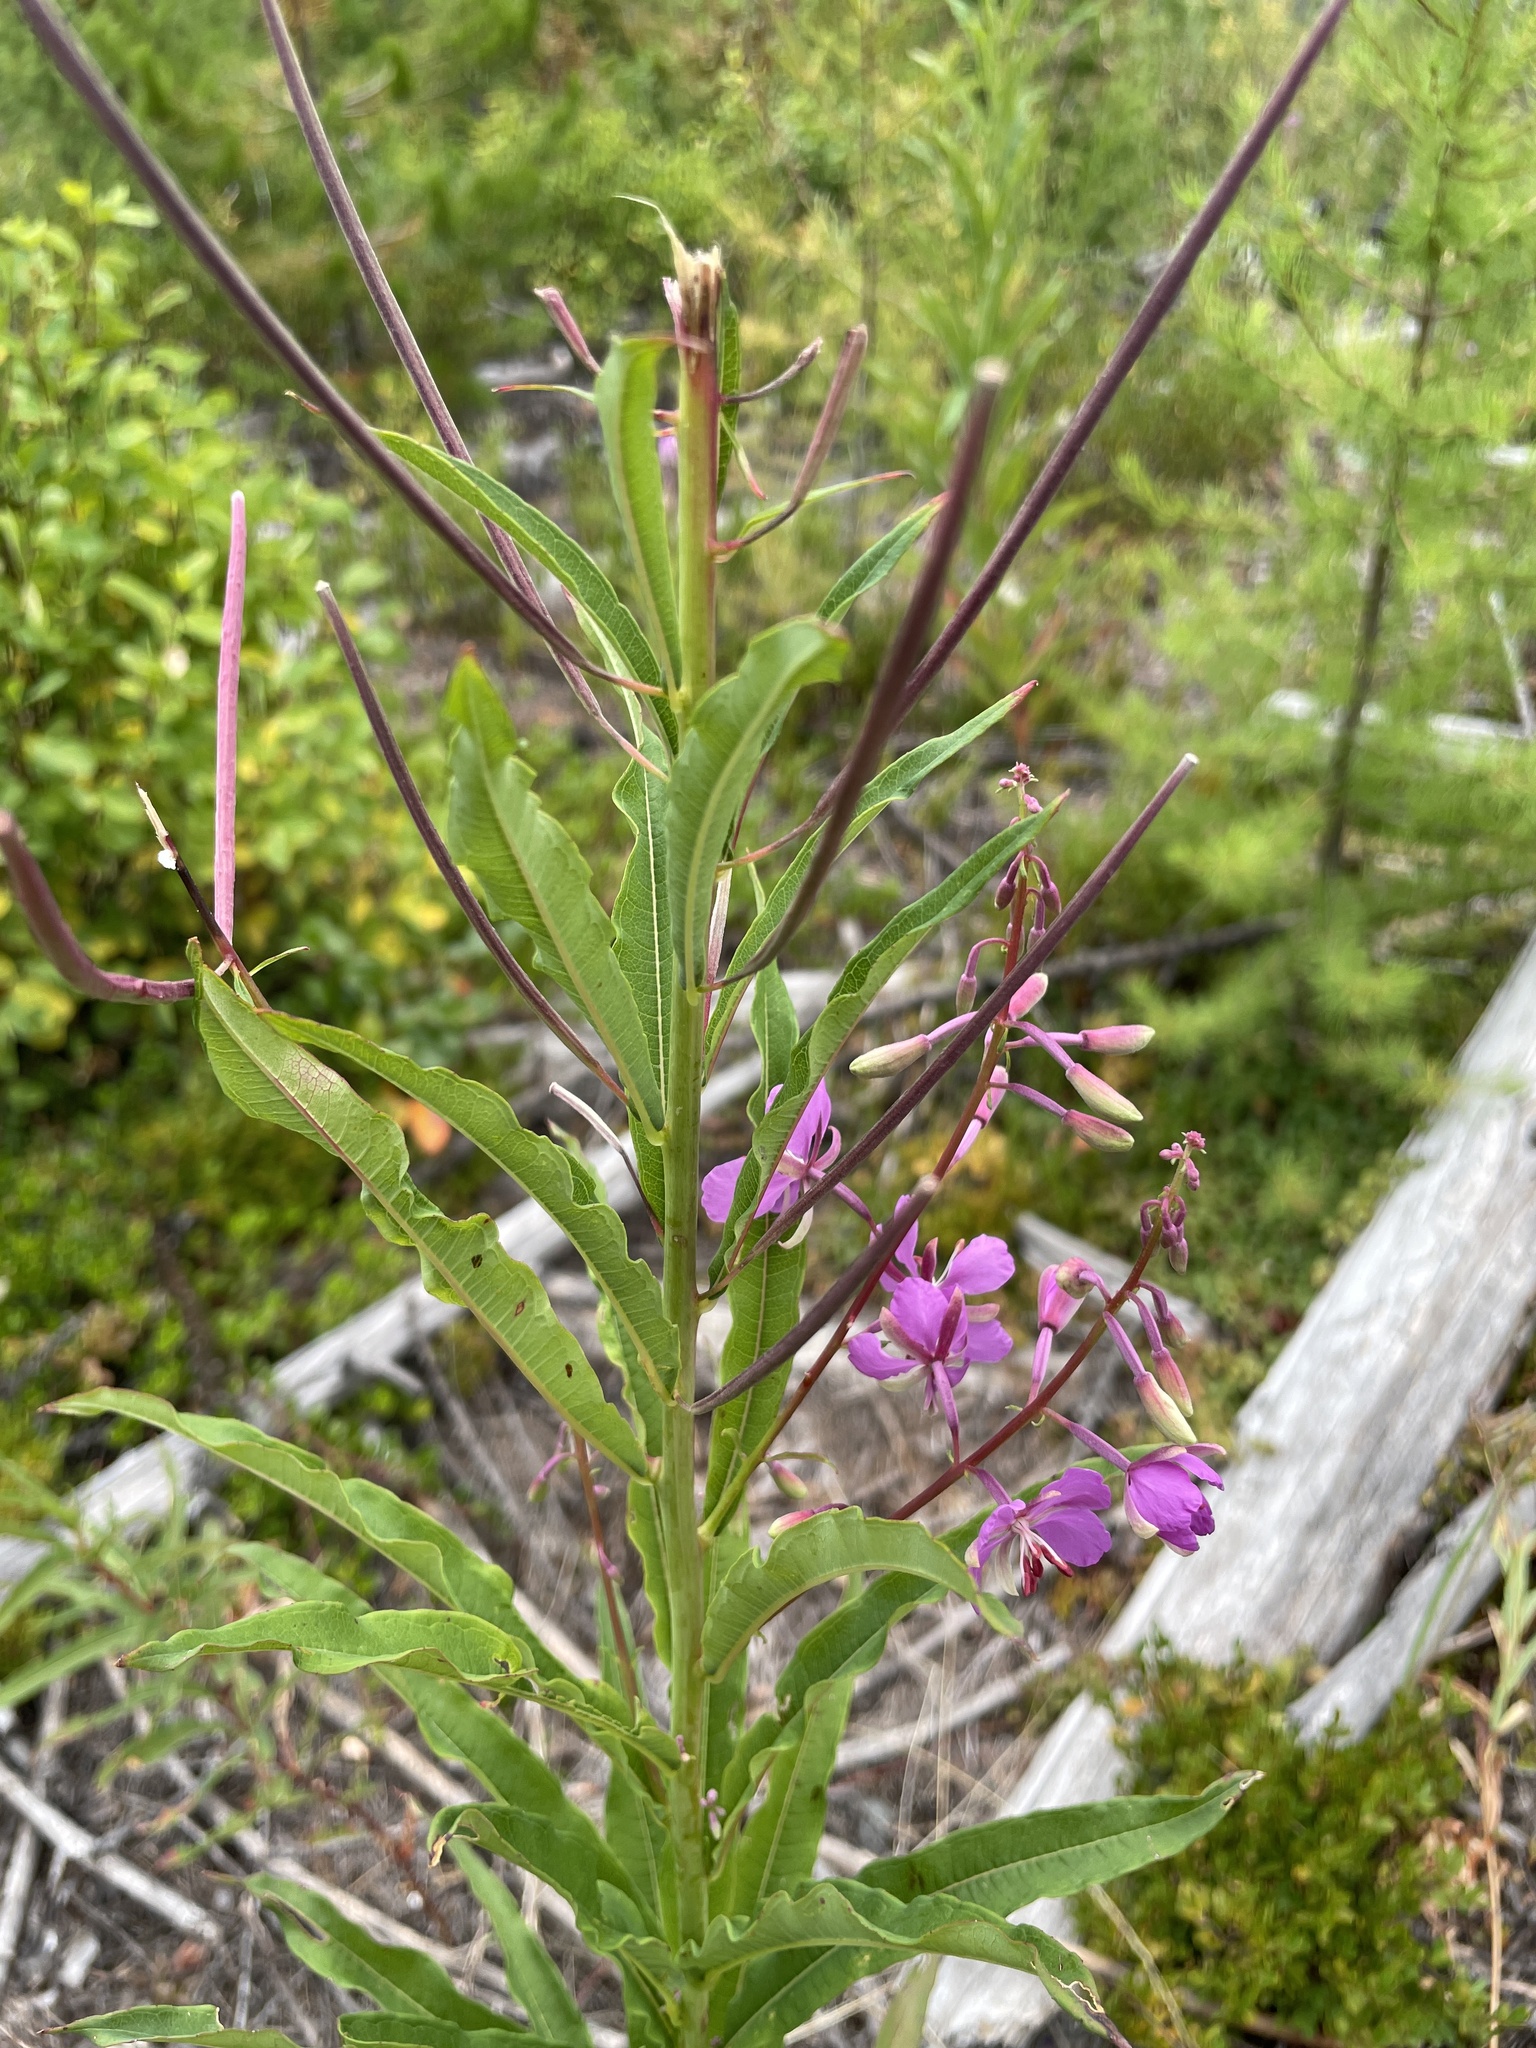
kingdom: Plantae
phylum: Tracheophyta
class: Magnoliopsida
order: Myrtales
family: Onagraceae
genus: Chamaenerion
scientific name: Chamaenerion angustifolium
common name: Fireweed
